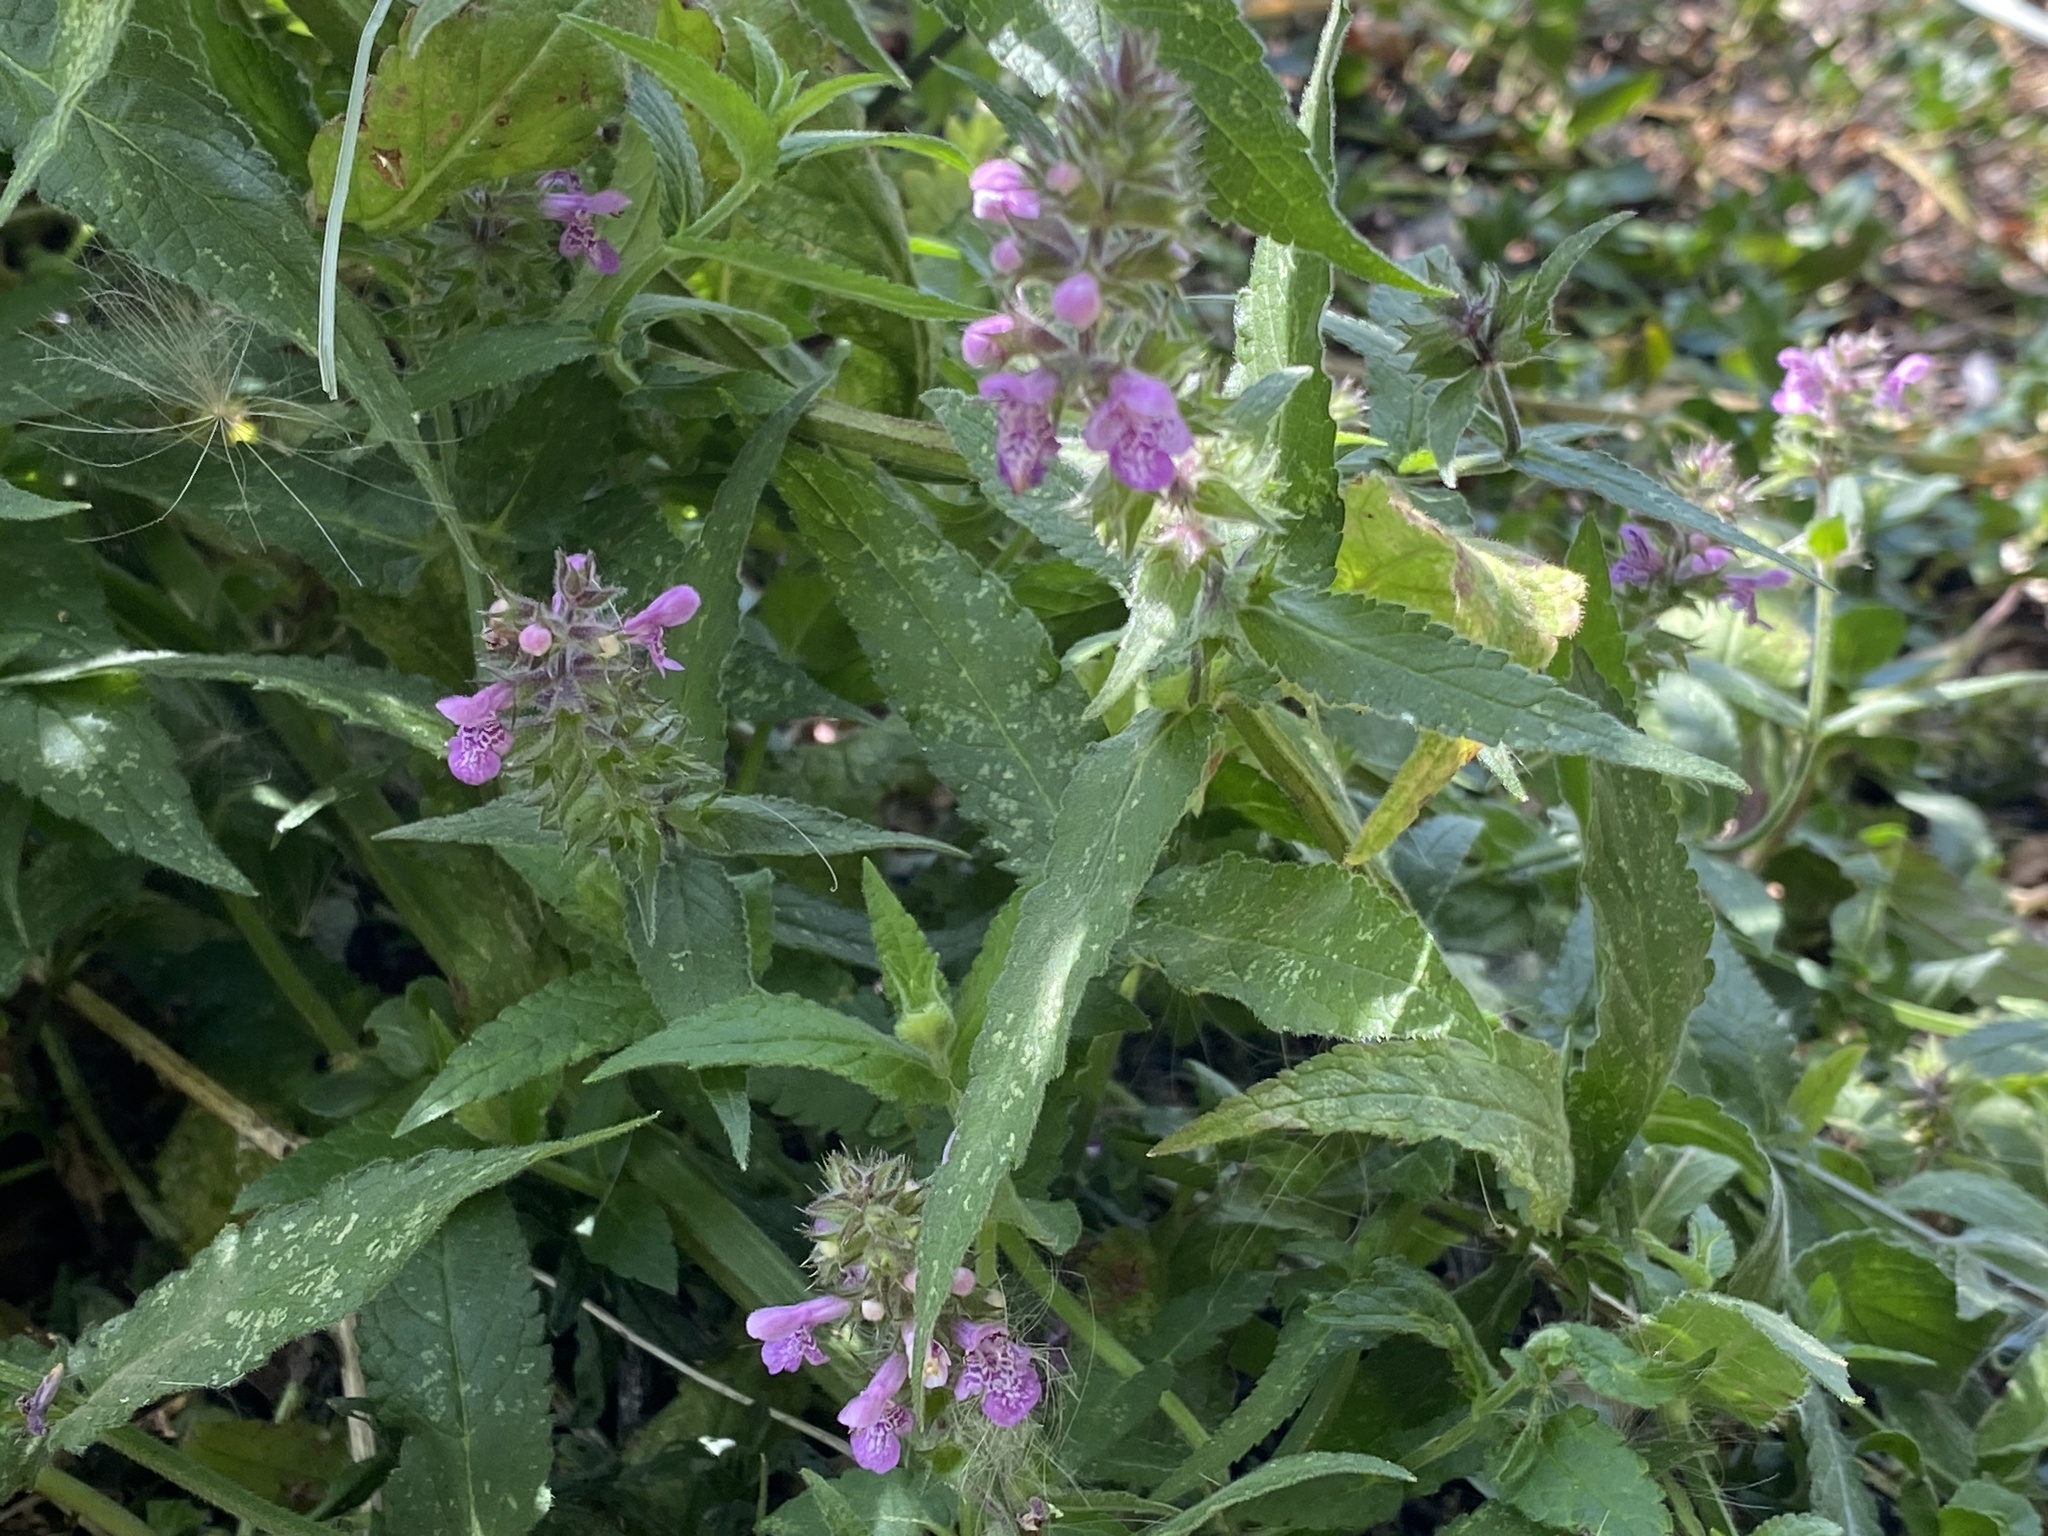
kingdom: Plantae
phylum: Tracheophyta
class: Magnoliopsida
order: Lamiales
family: Lamiaceae
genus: Stachys
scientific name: Stachys palustris
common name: Marsh woundwort
